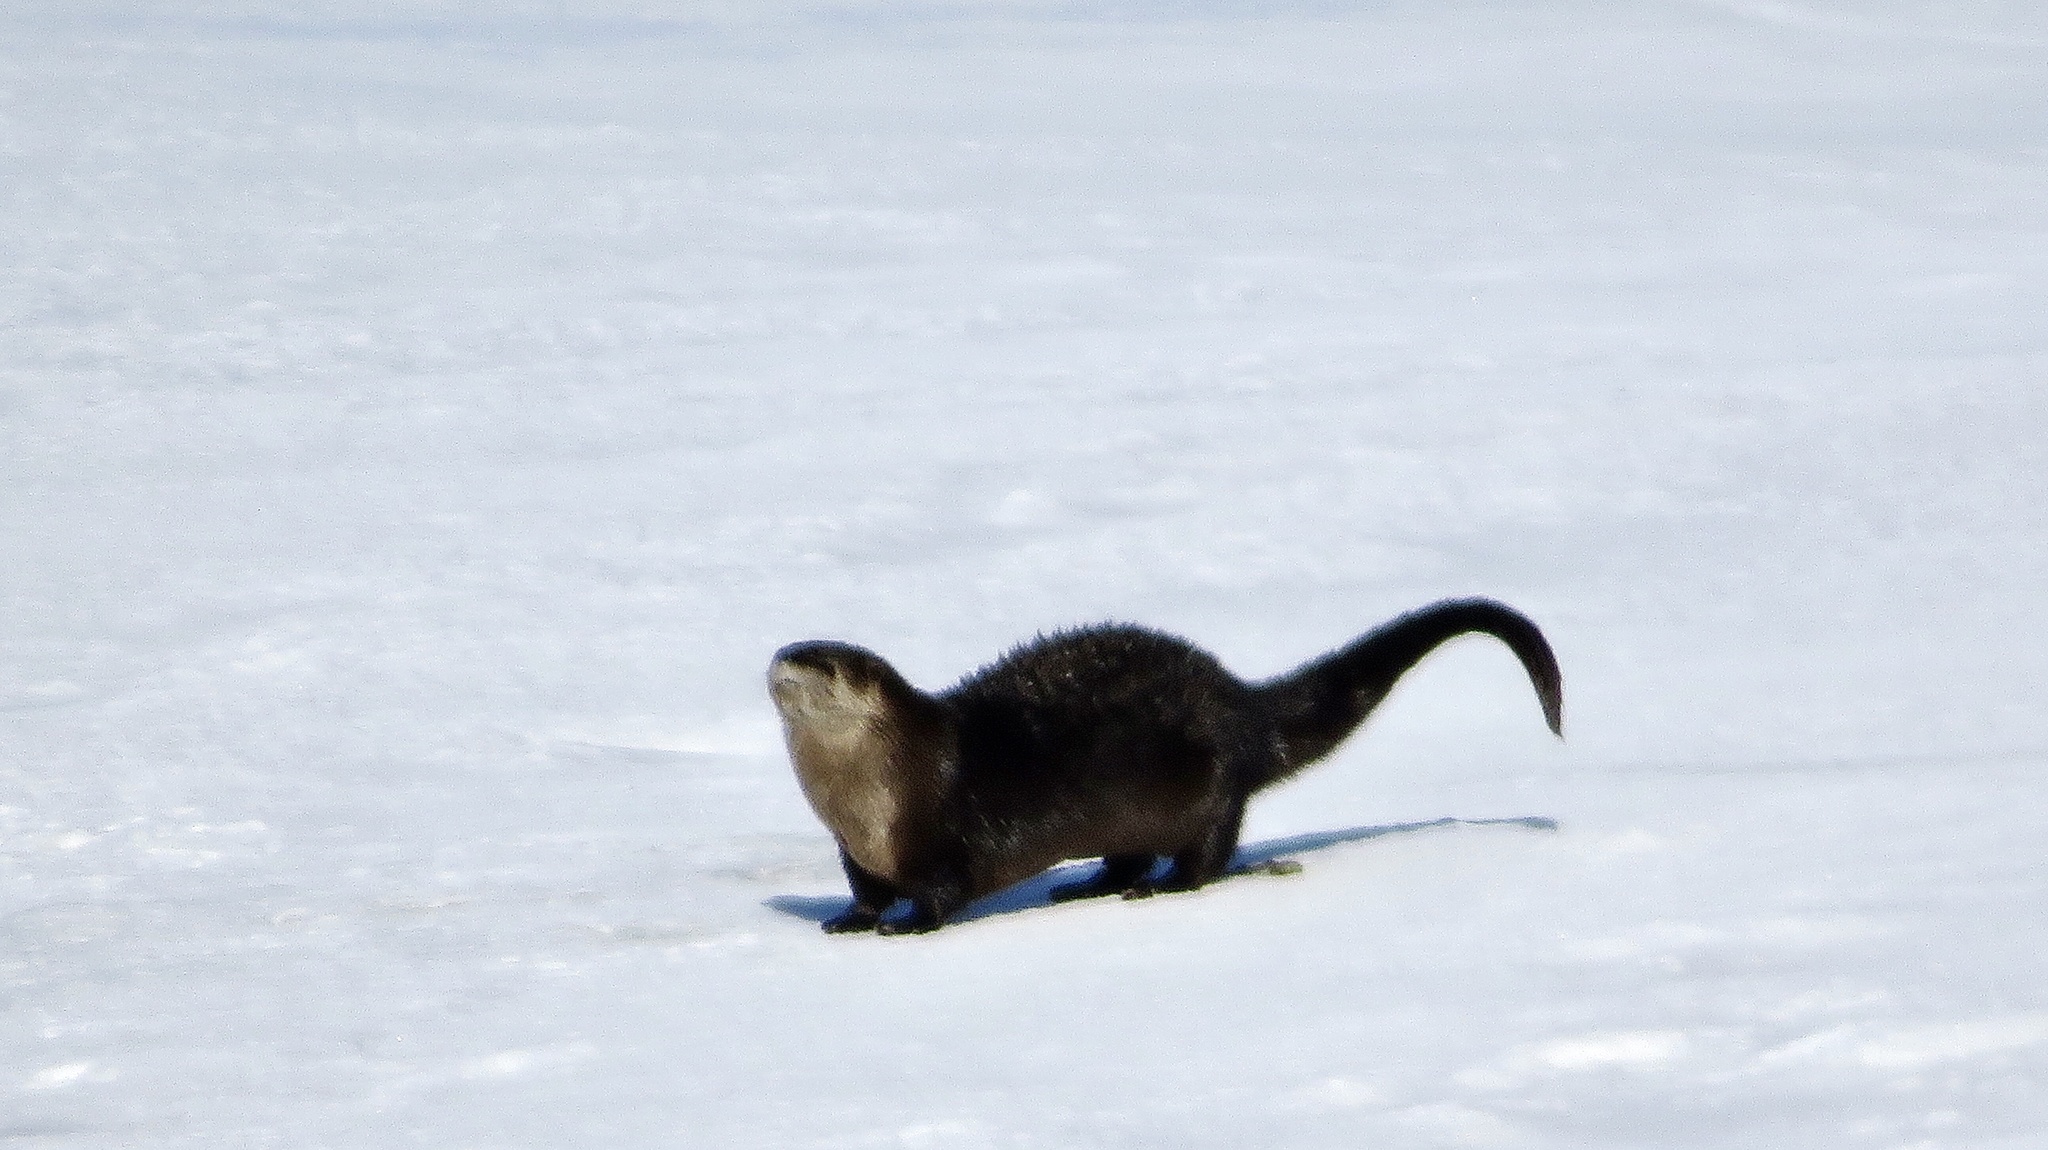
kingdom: Animalia
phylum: Chordata
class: Mammalia
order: Carnivora
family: Mustelidae
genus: Lontra
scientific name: Lontra canadensis
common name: North american river otter
